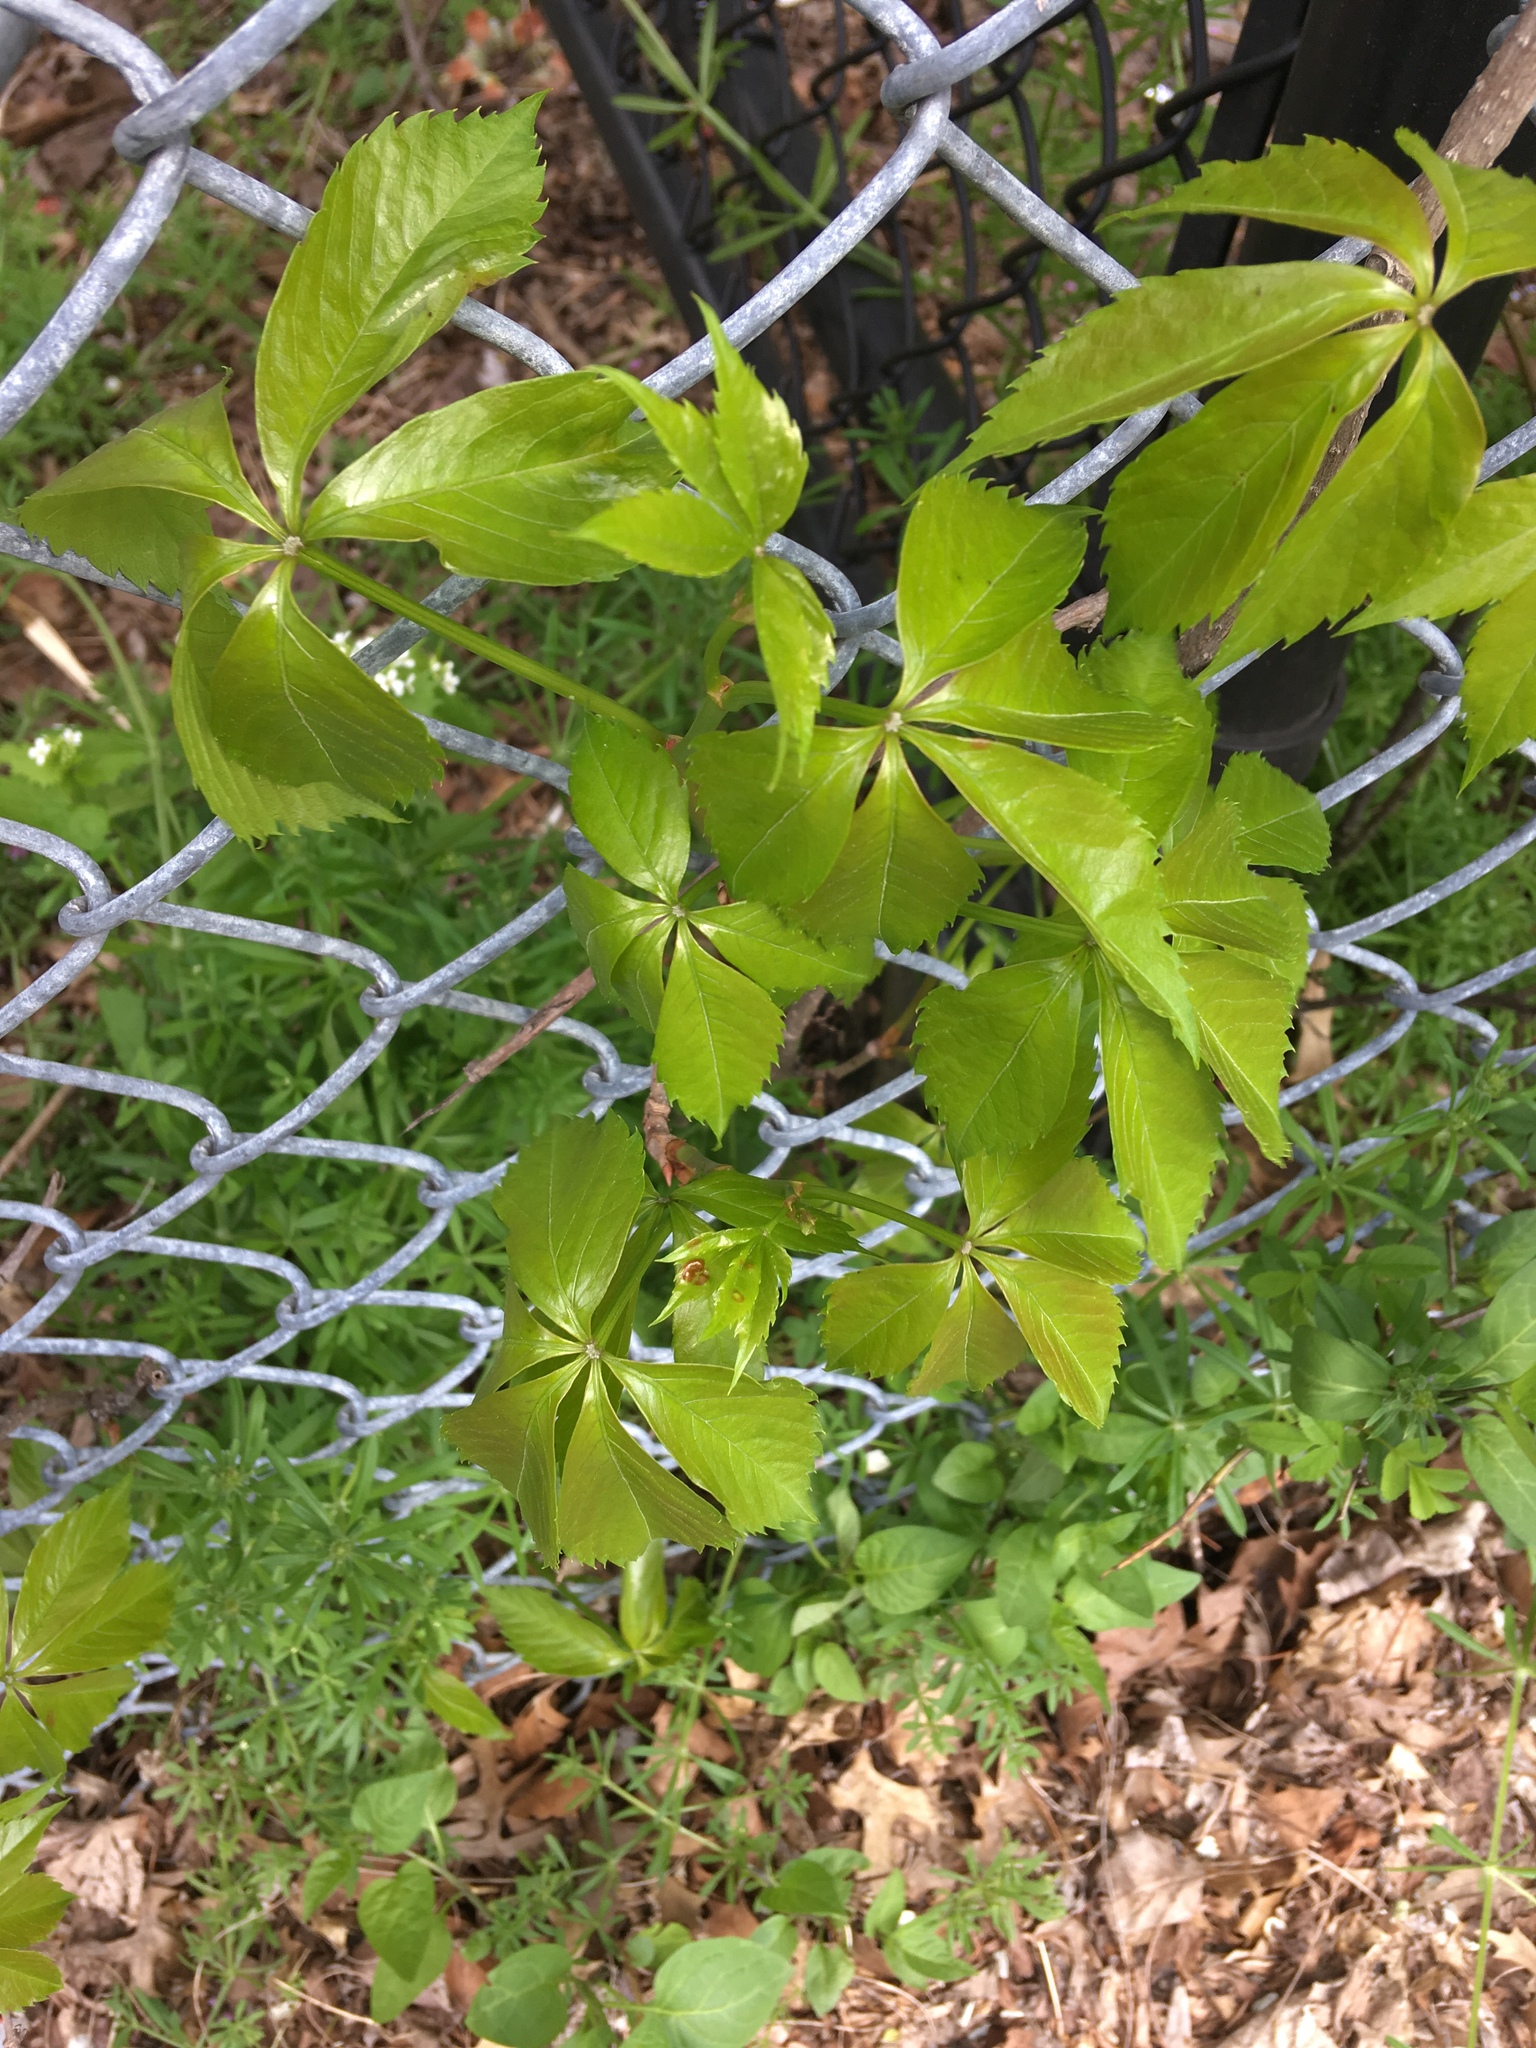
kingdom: Plantae
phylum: Tracheophyta
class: Magnoliopsida
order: Vitales
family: Vitaceae
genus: Parthenocissus
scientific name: Parthenocissus quinquefolia
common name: Virginia-creeper
